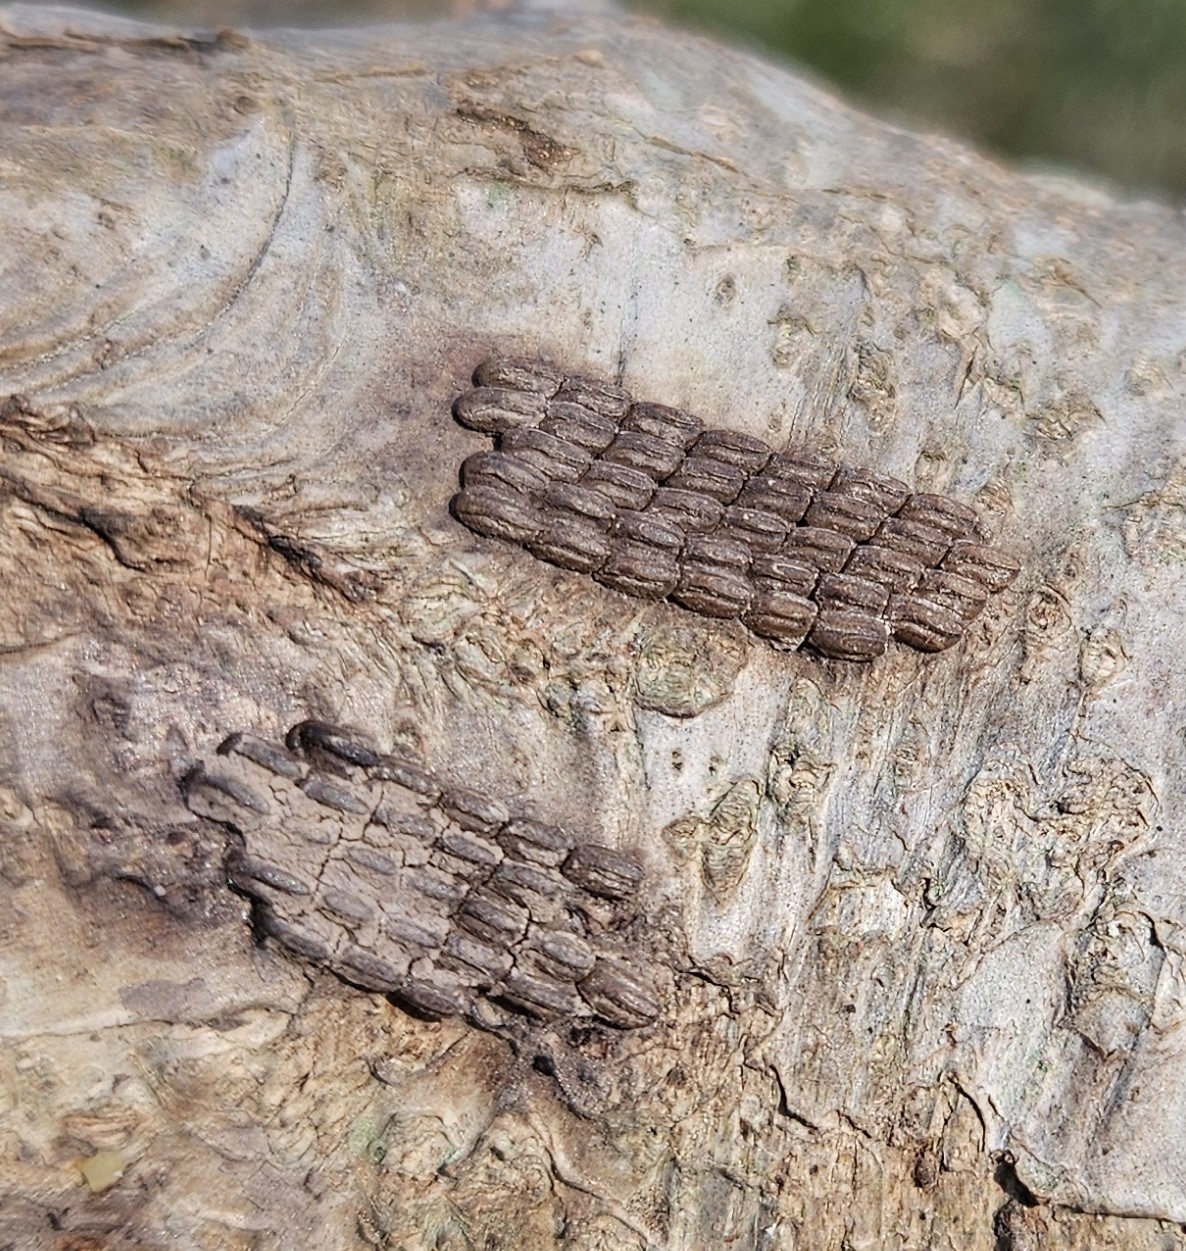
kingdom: Animalia
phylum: Arthropoda
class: Insecta
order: Hemiptera
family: Fulgoridae
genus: Lycorma
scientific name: Lycorma delicatula
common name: Spotted lanternfly
